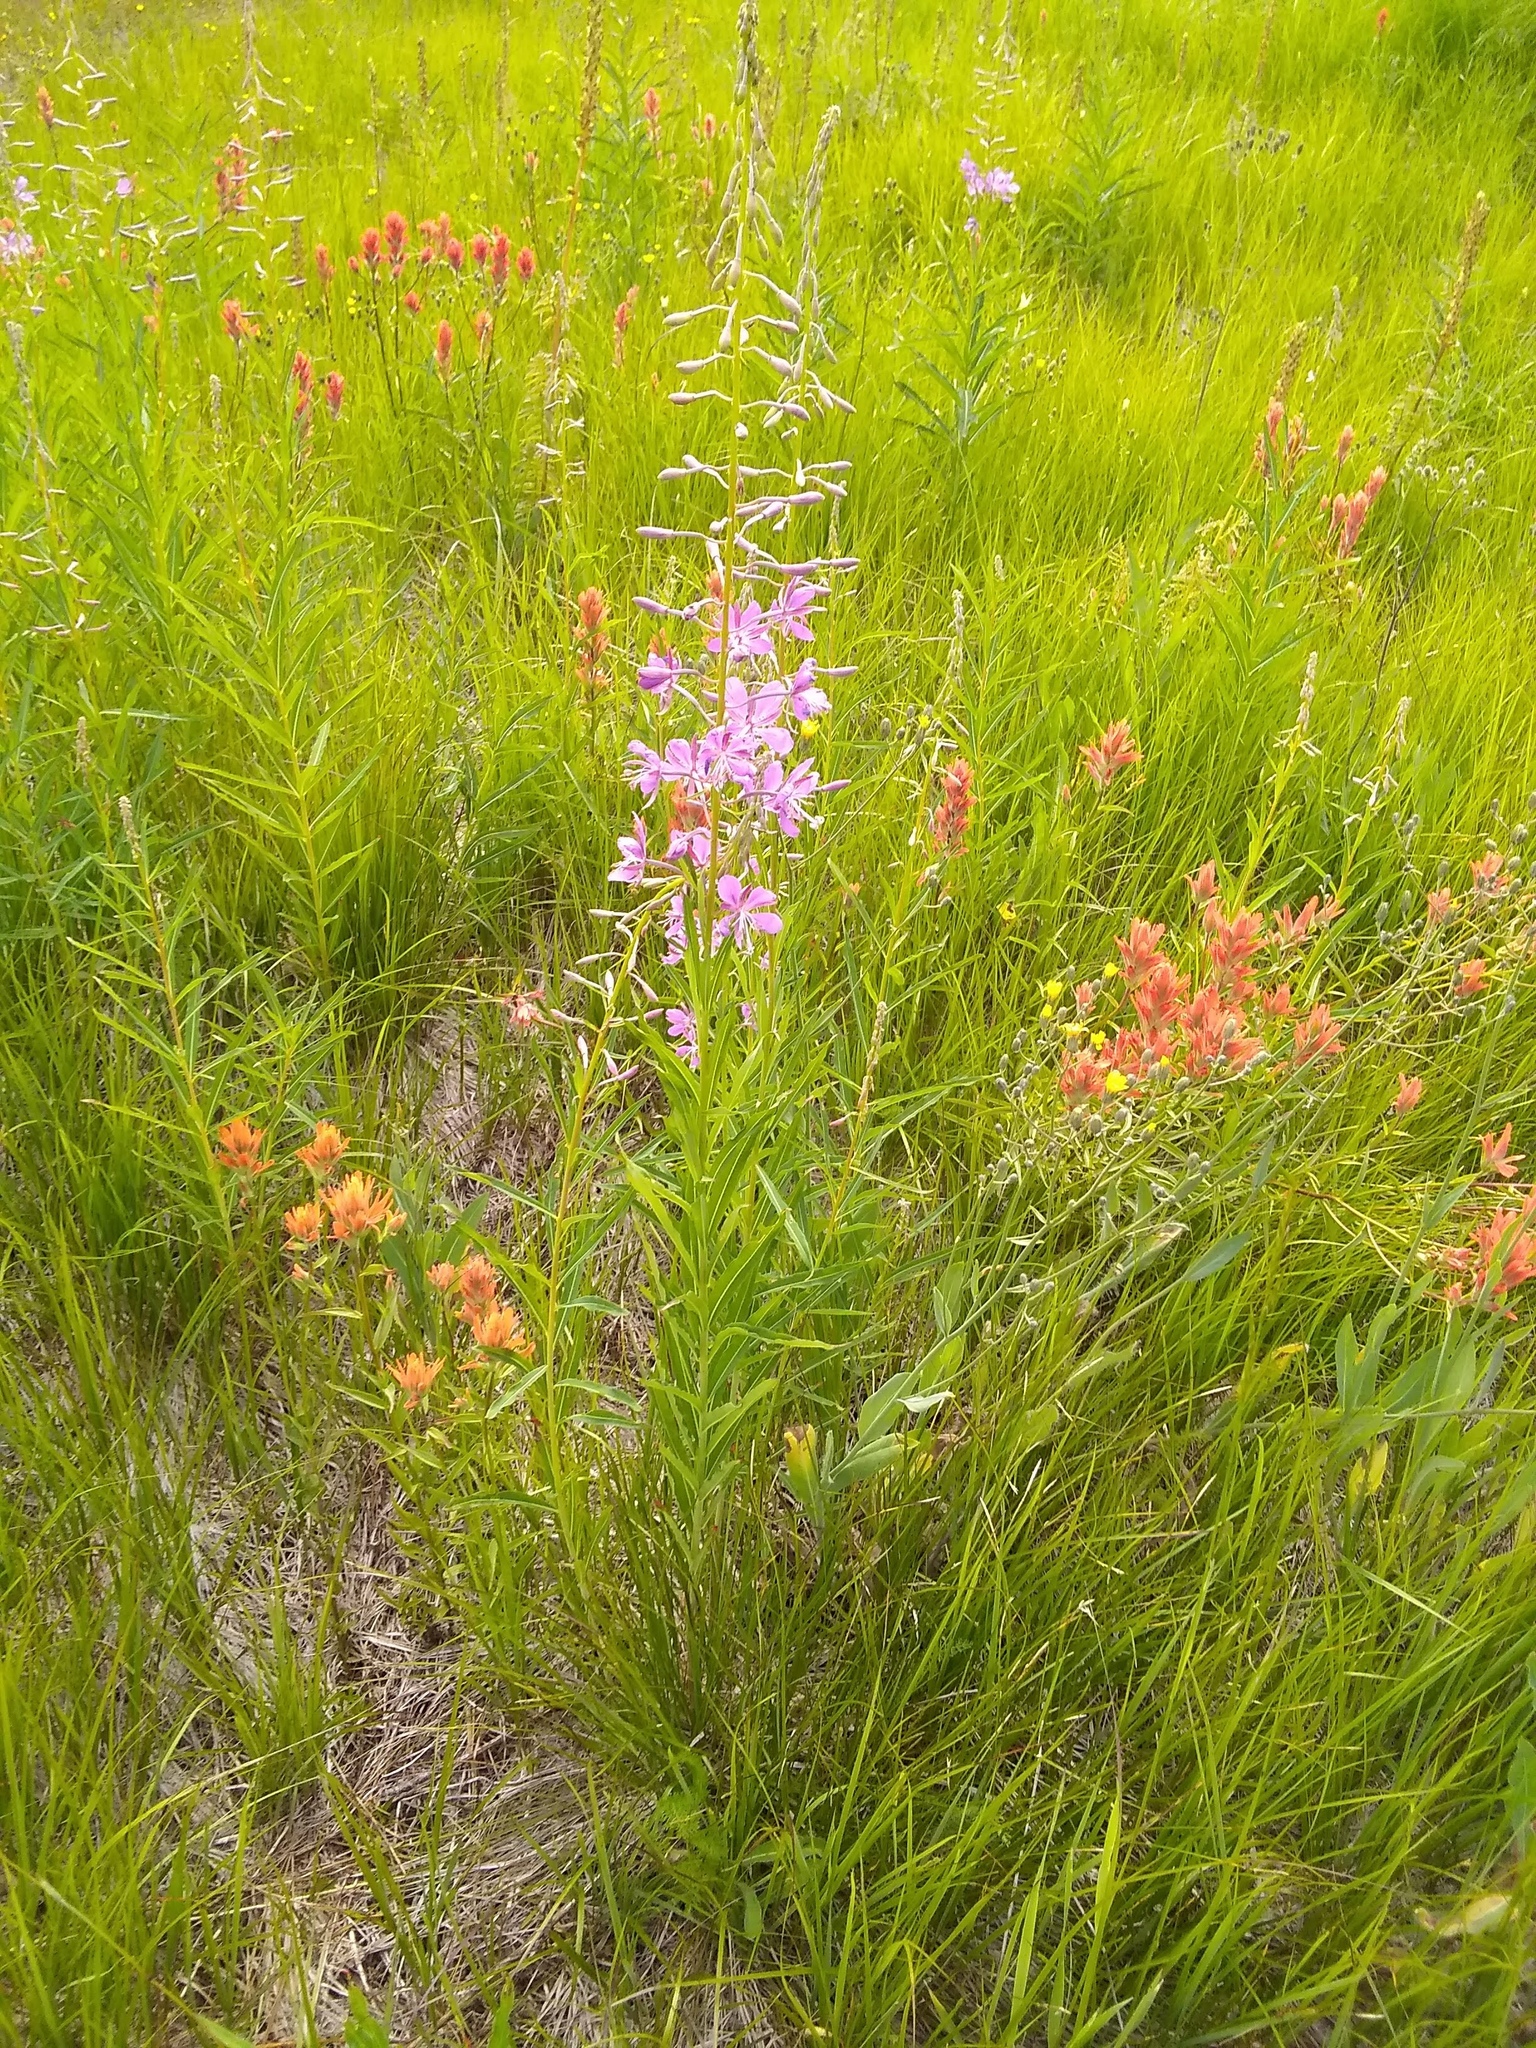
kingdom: Plantae
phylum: Tracheophyta
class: Magnoliopsida
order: Myrtales
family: Onagraceae
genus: Chamaenerion
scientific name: Chamaenerion angustifolium
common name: Fireweed
